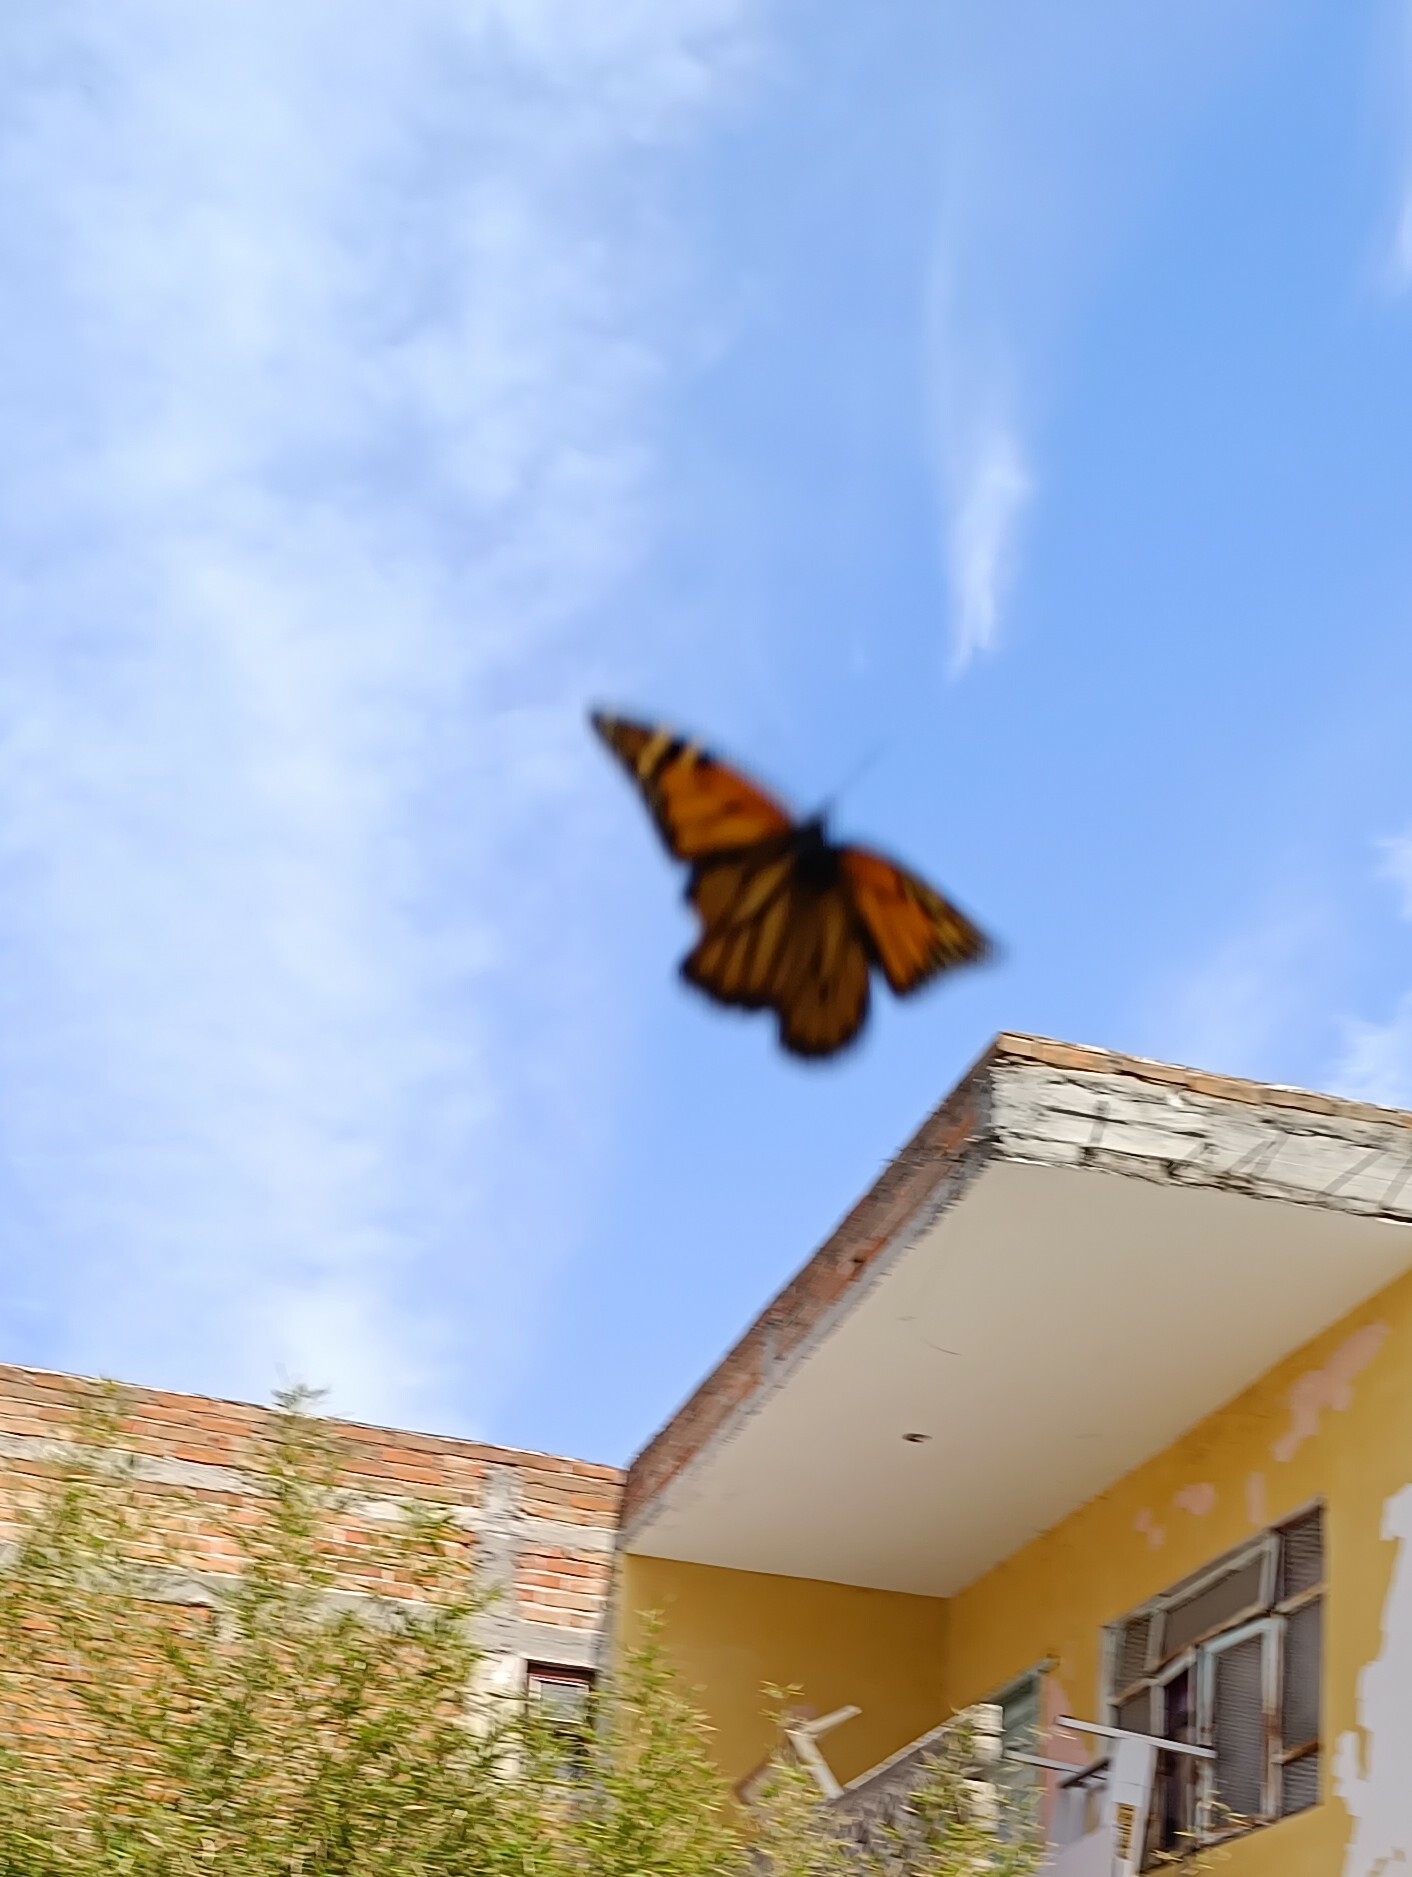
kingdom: Animalia
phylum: Arthropoda
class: Insecta
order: Lepidoptera
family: Nymphalidae
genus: Danaus
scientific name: Danaus plexippus
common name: Monarch
